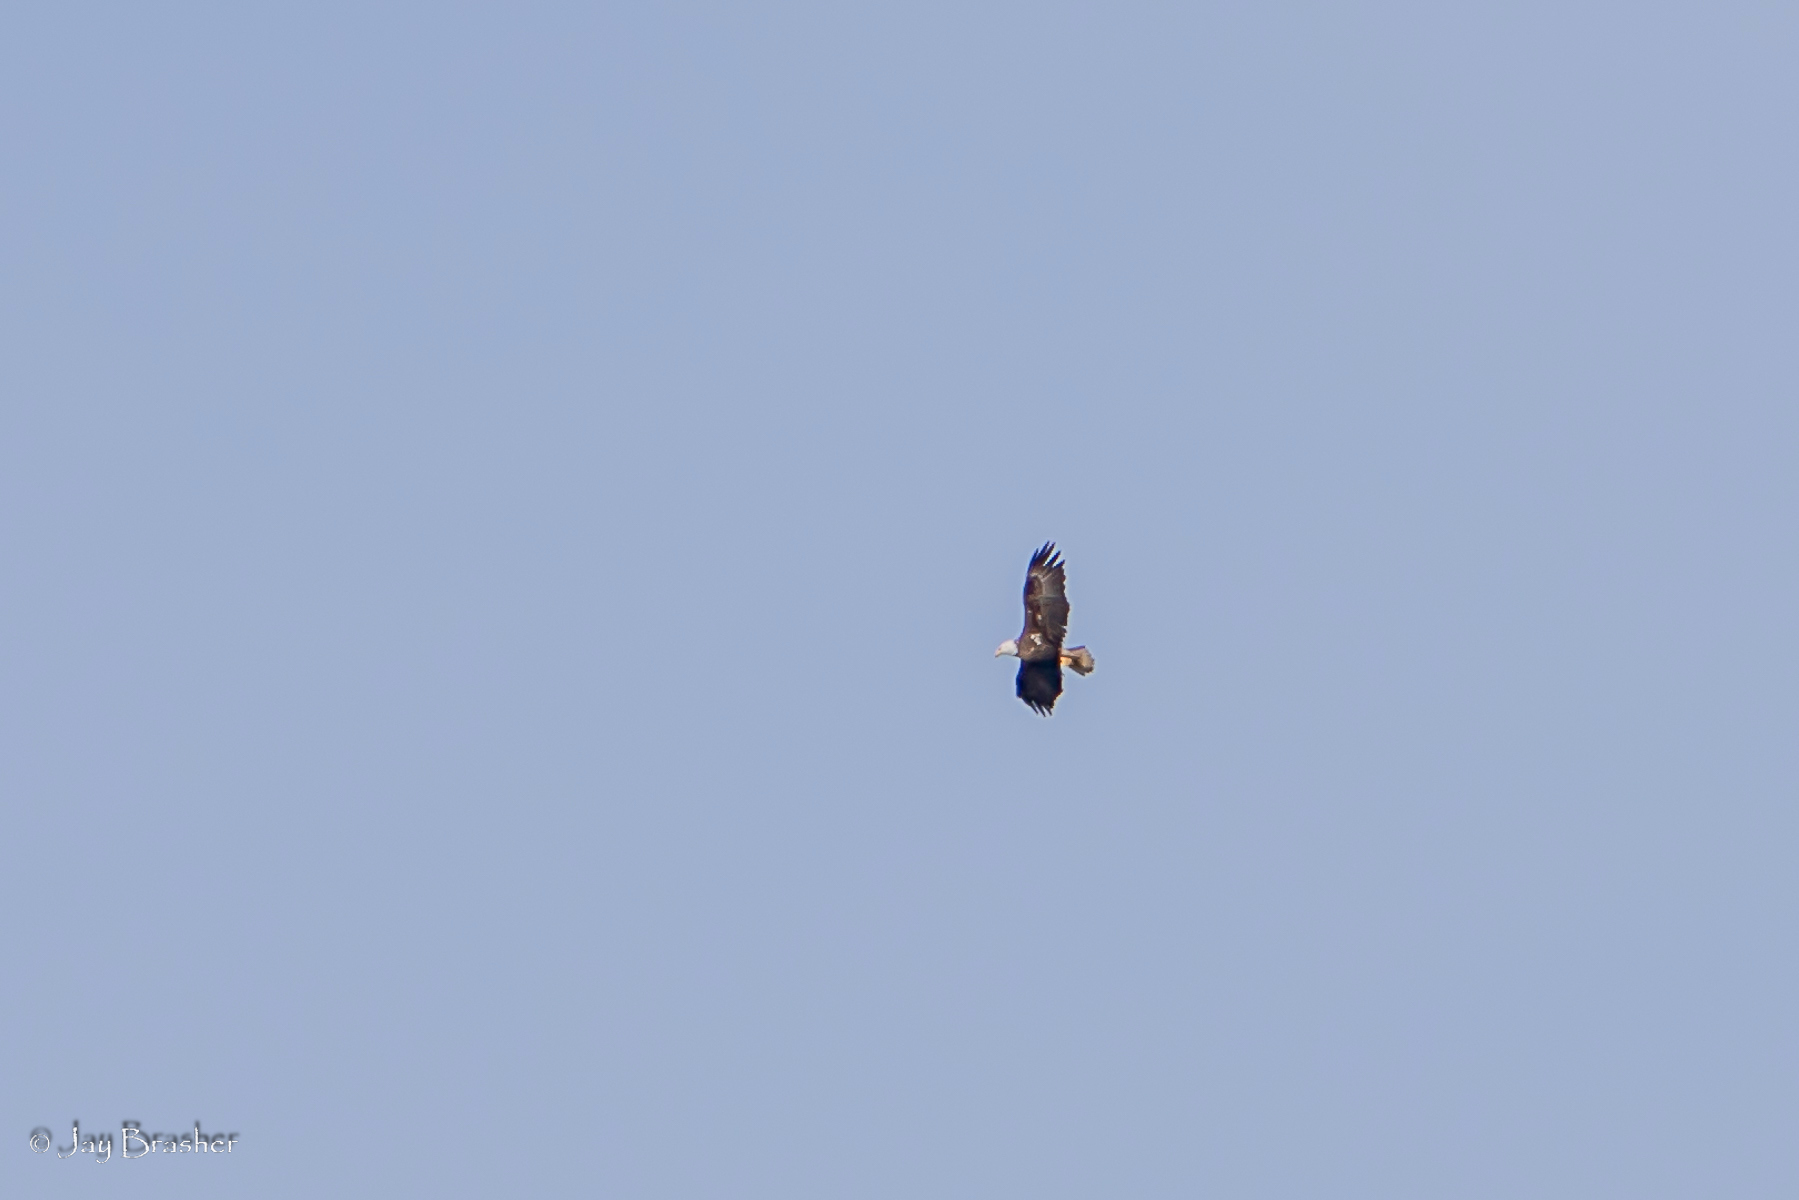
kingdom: Animalia
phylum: Chordata
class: Aves
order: Accipitriformes
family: Accipitridae
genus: Haliaeetus
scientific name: Haliaeetus leucocephalus
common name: Bald eagle
